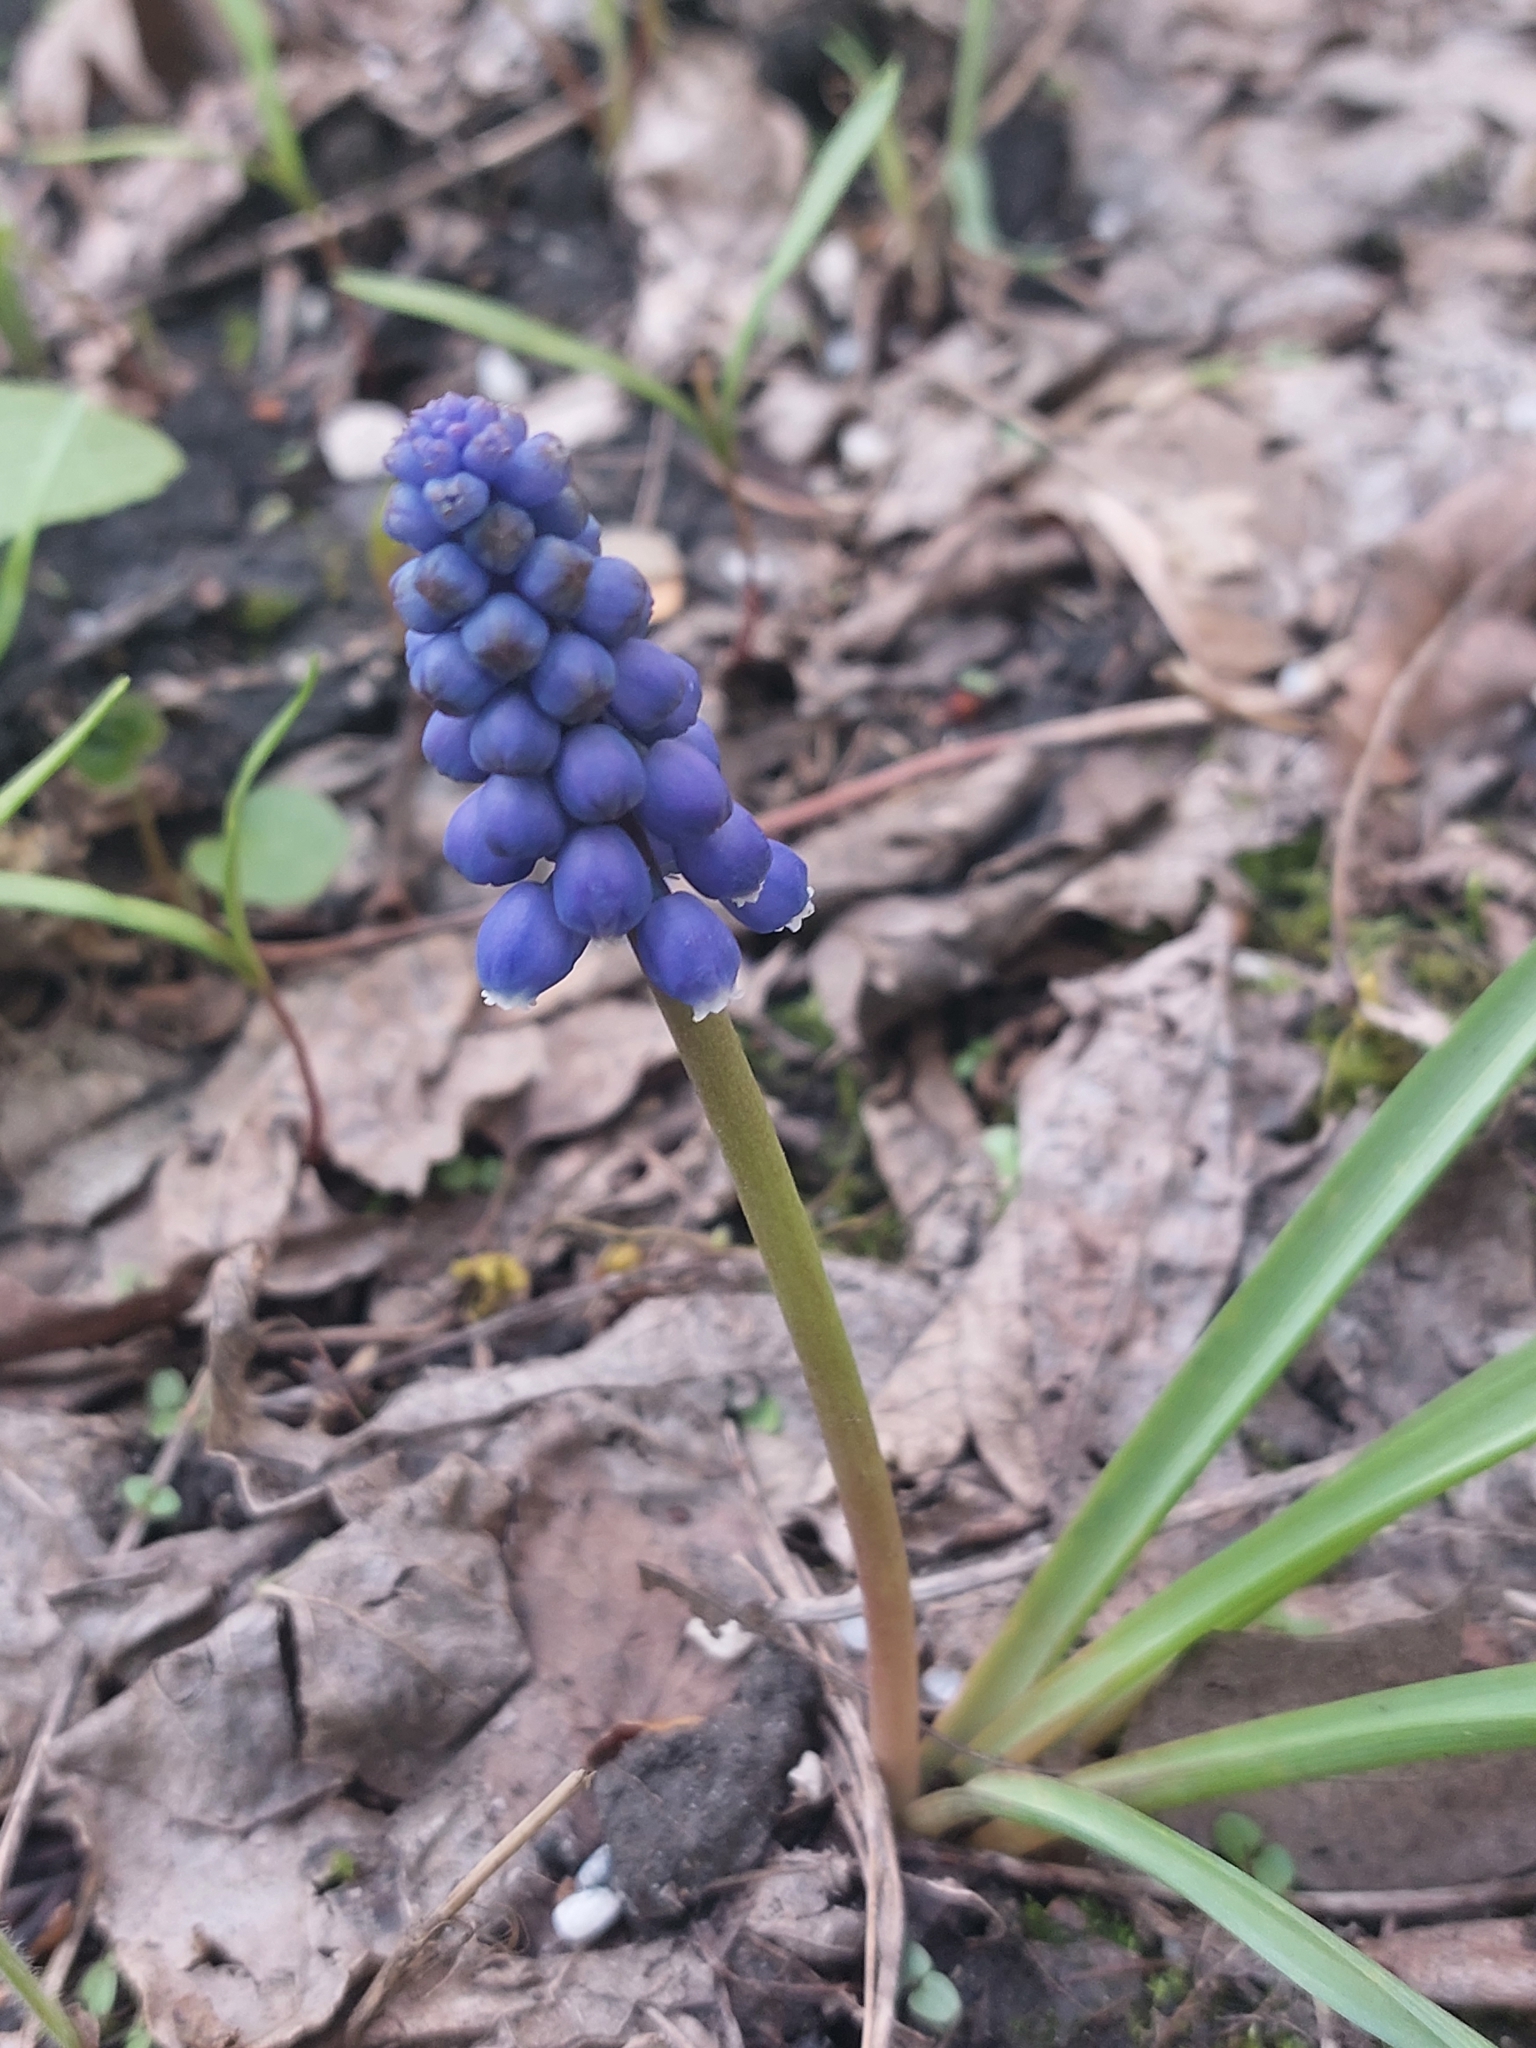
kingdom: Plantae
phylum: Tracheophyta
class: Liliopsida
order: Asparagales
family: Asparagaceae
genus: Muscari
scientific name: Muscari botryoides
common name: Compact grape-hyacinth
